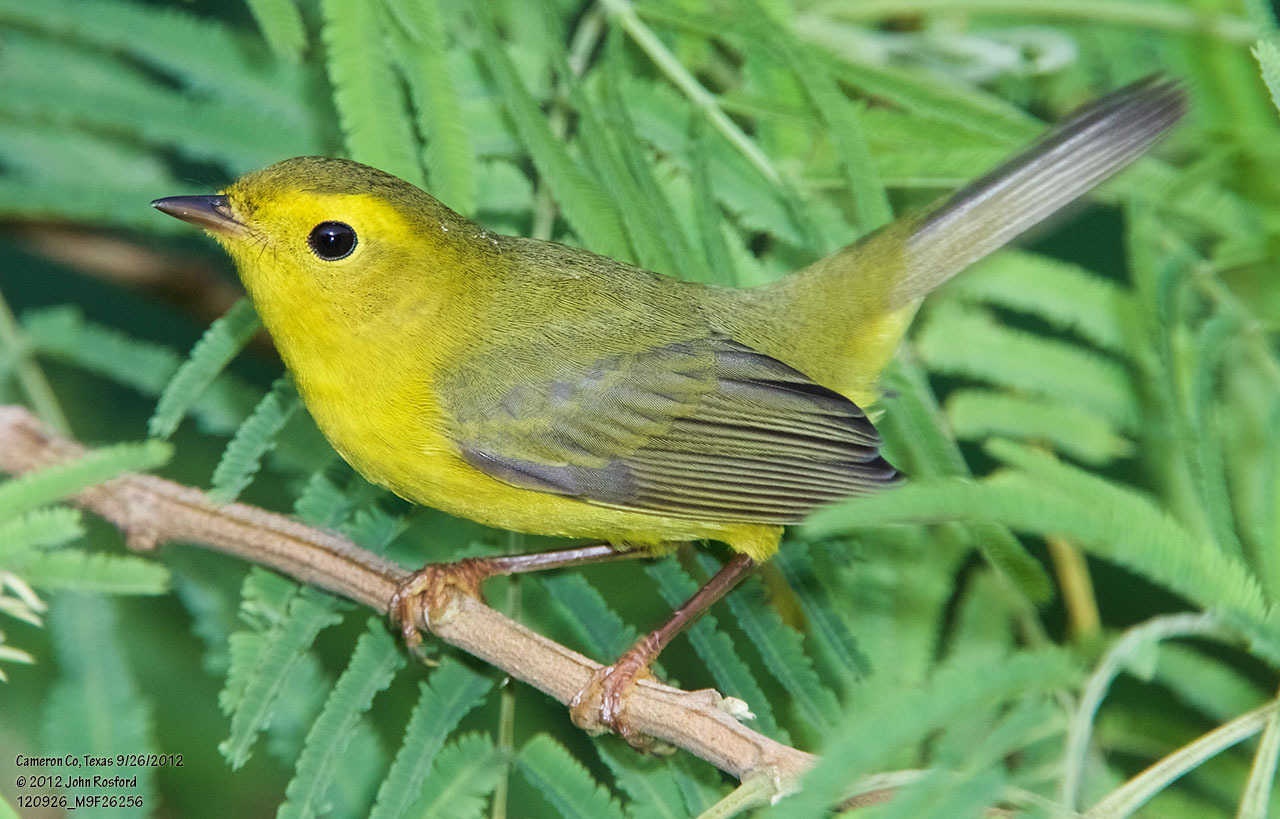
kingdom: Animalia
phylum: Chordata
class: Aves
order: Passeriformes
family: Parulidae
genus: Cardellina
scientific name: Cardellina pusilla
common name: Wilson's warbler
